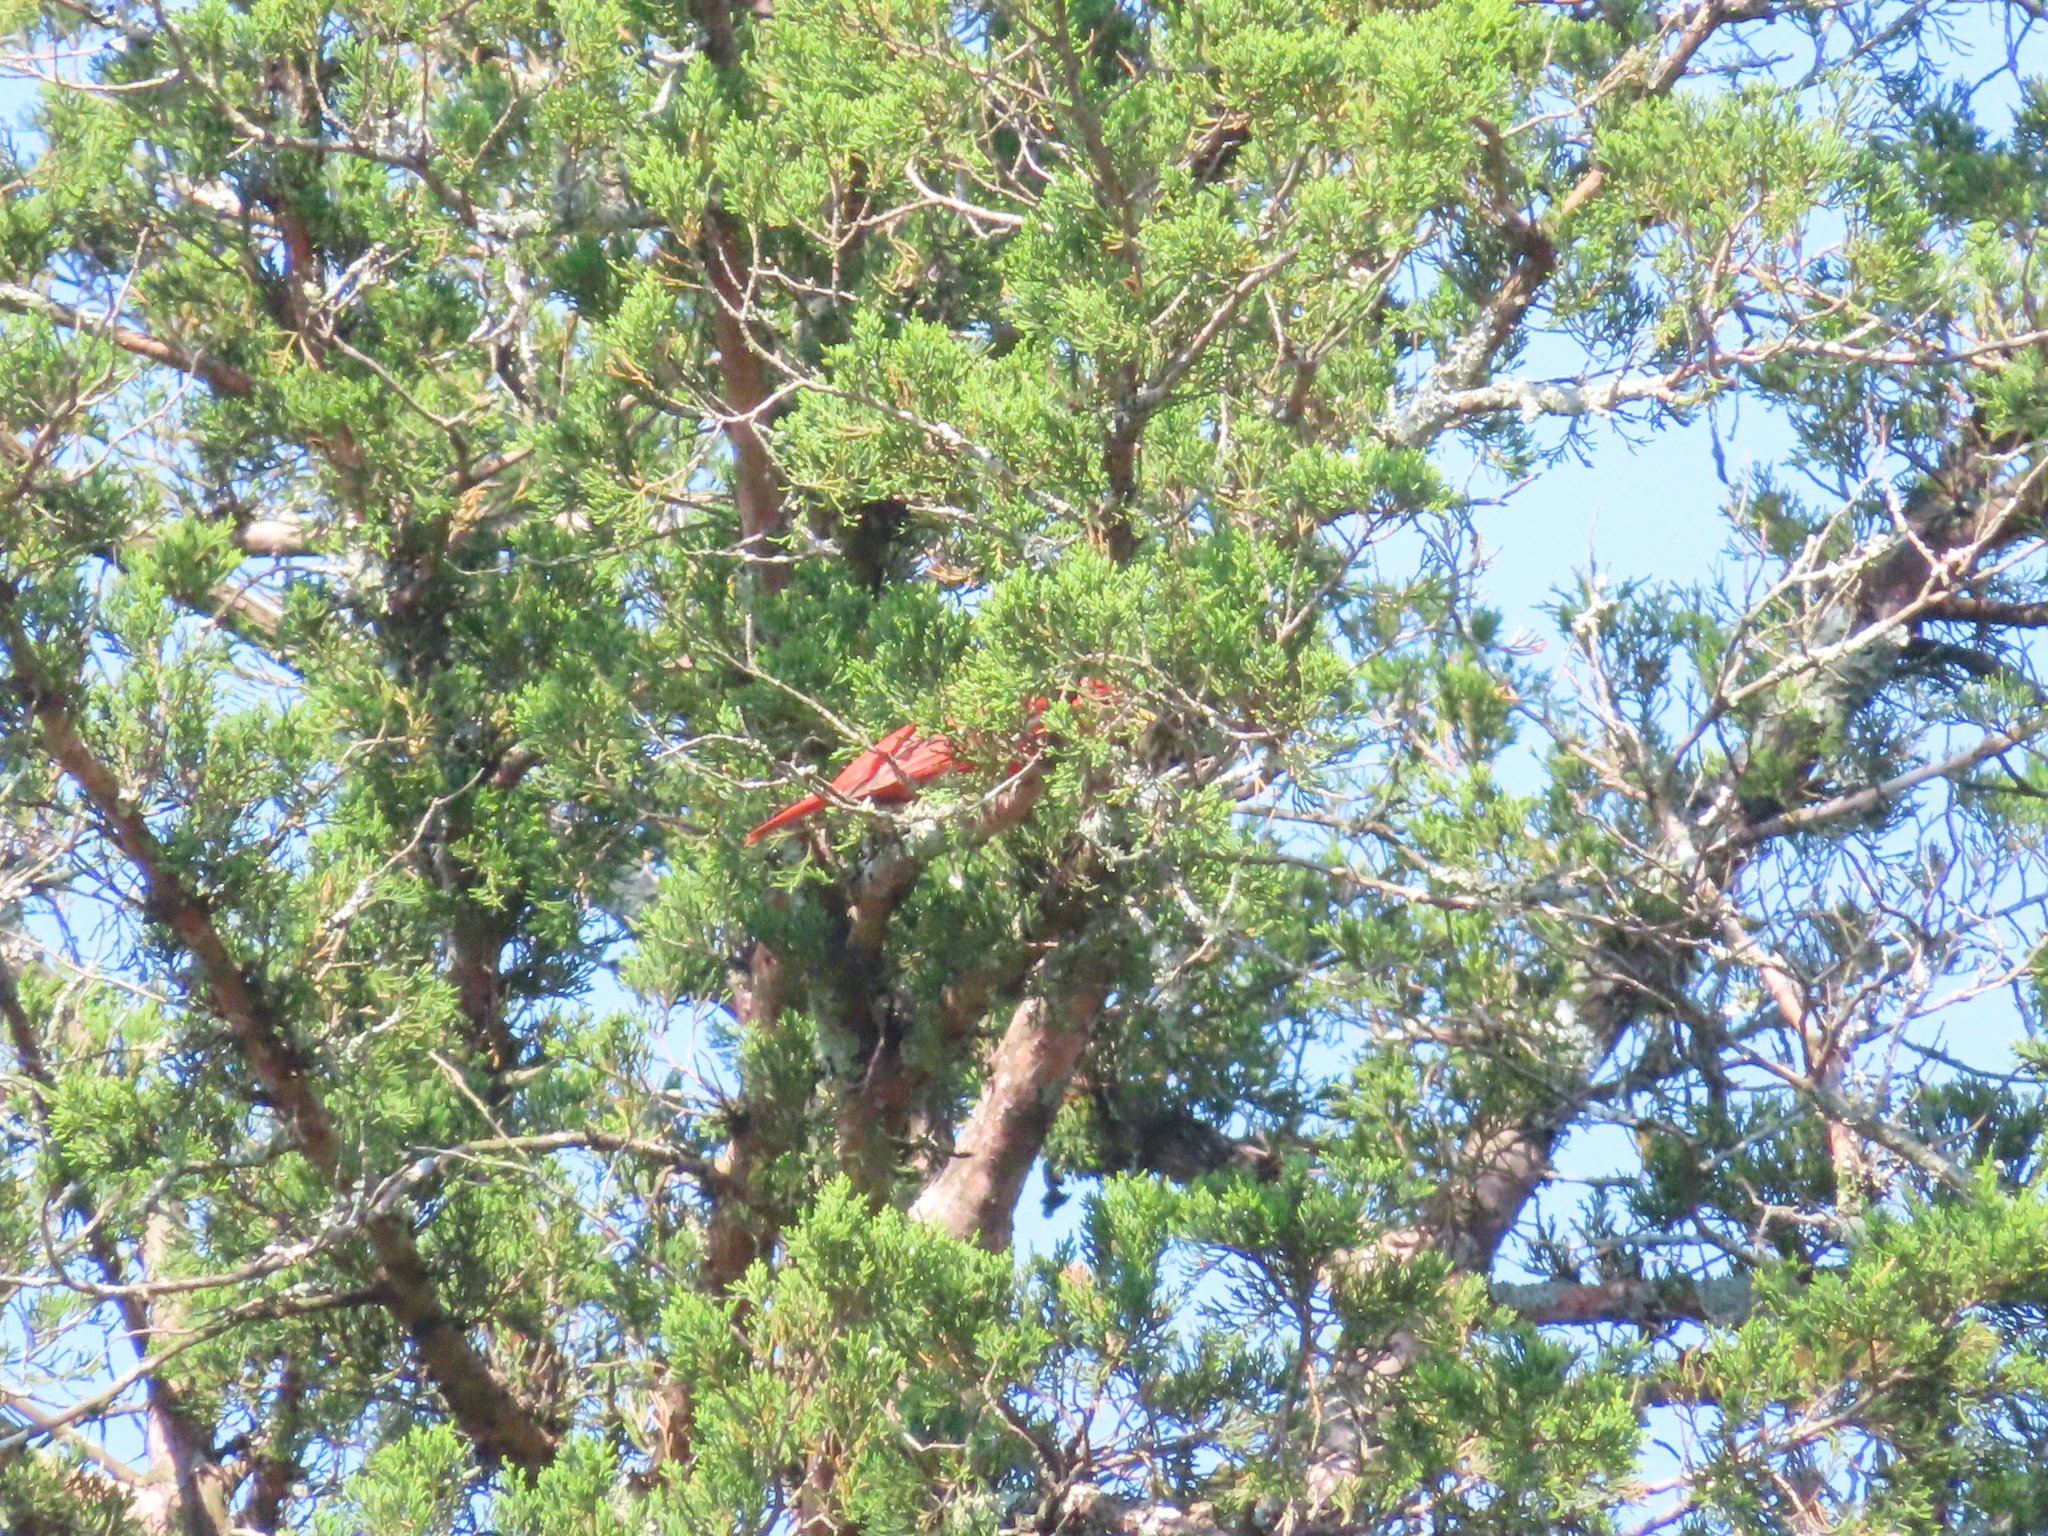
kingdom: Animalia
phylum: Chordata
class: Aves
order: Passeriformes
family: Cardinalidae
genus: Piranga
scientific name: Piranga rubra
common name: Summer tanager
